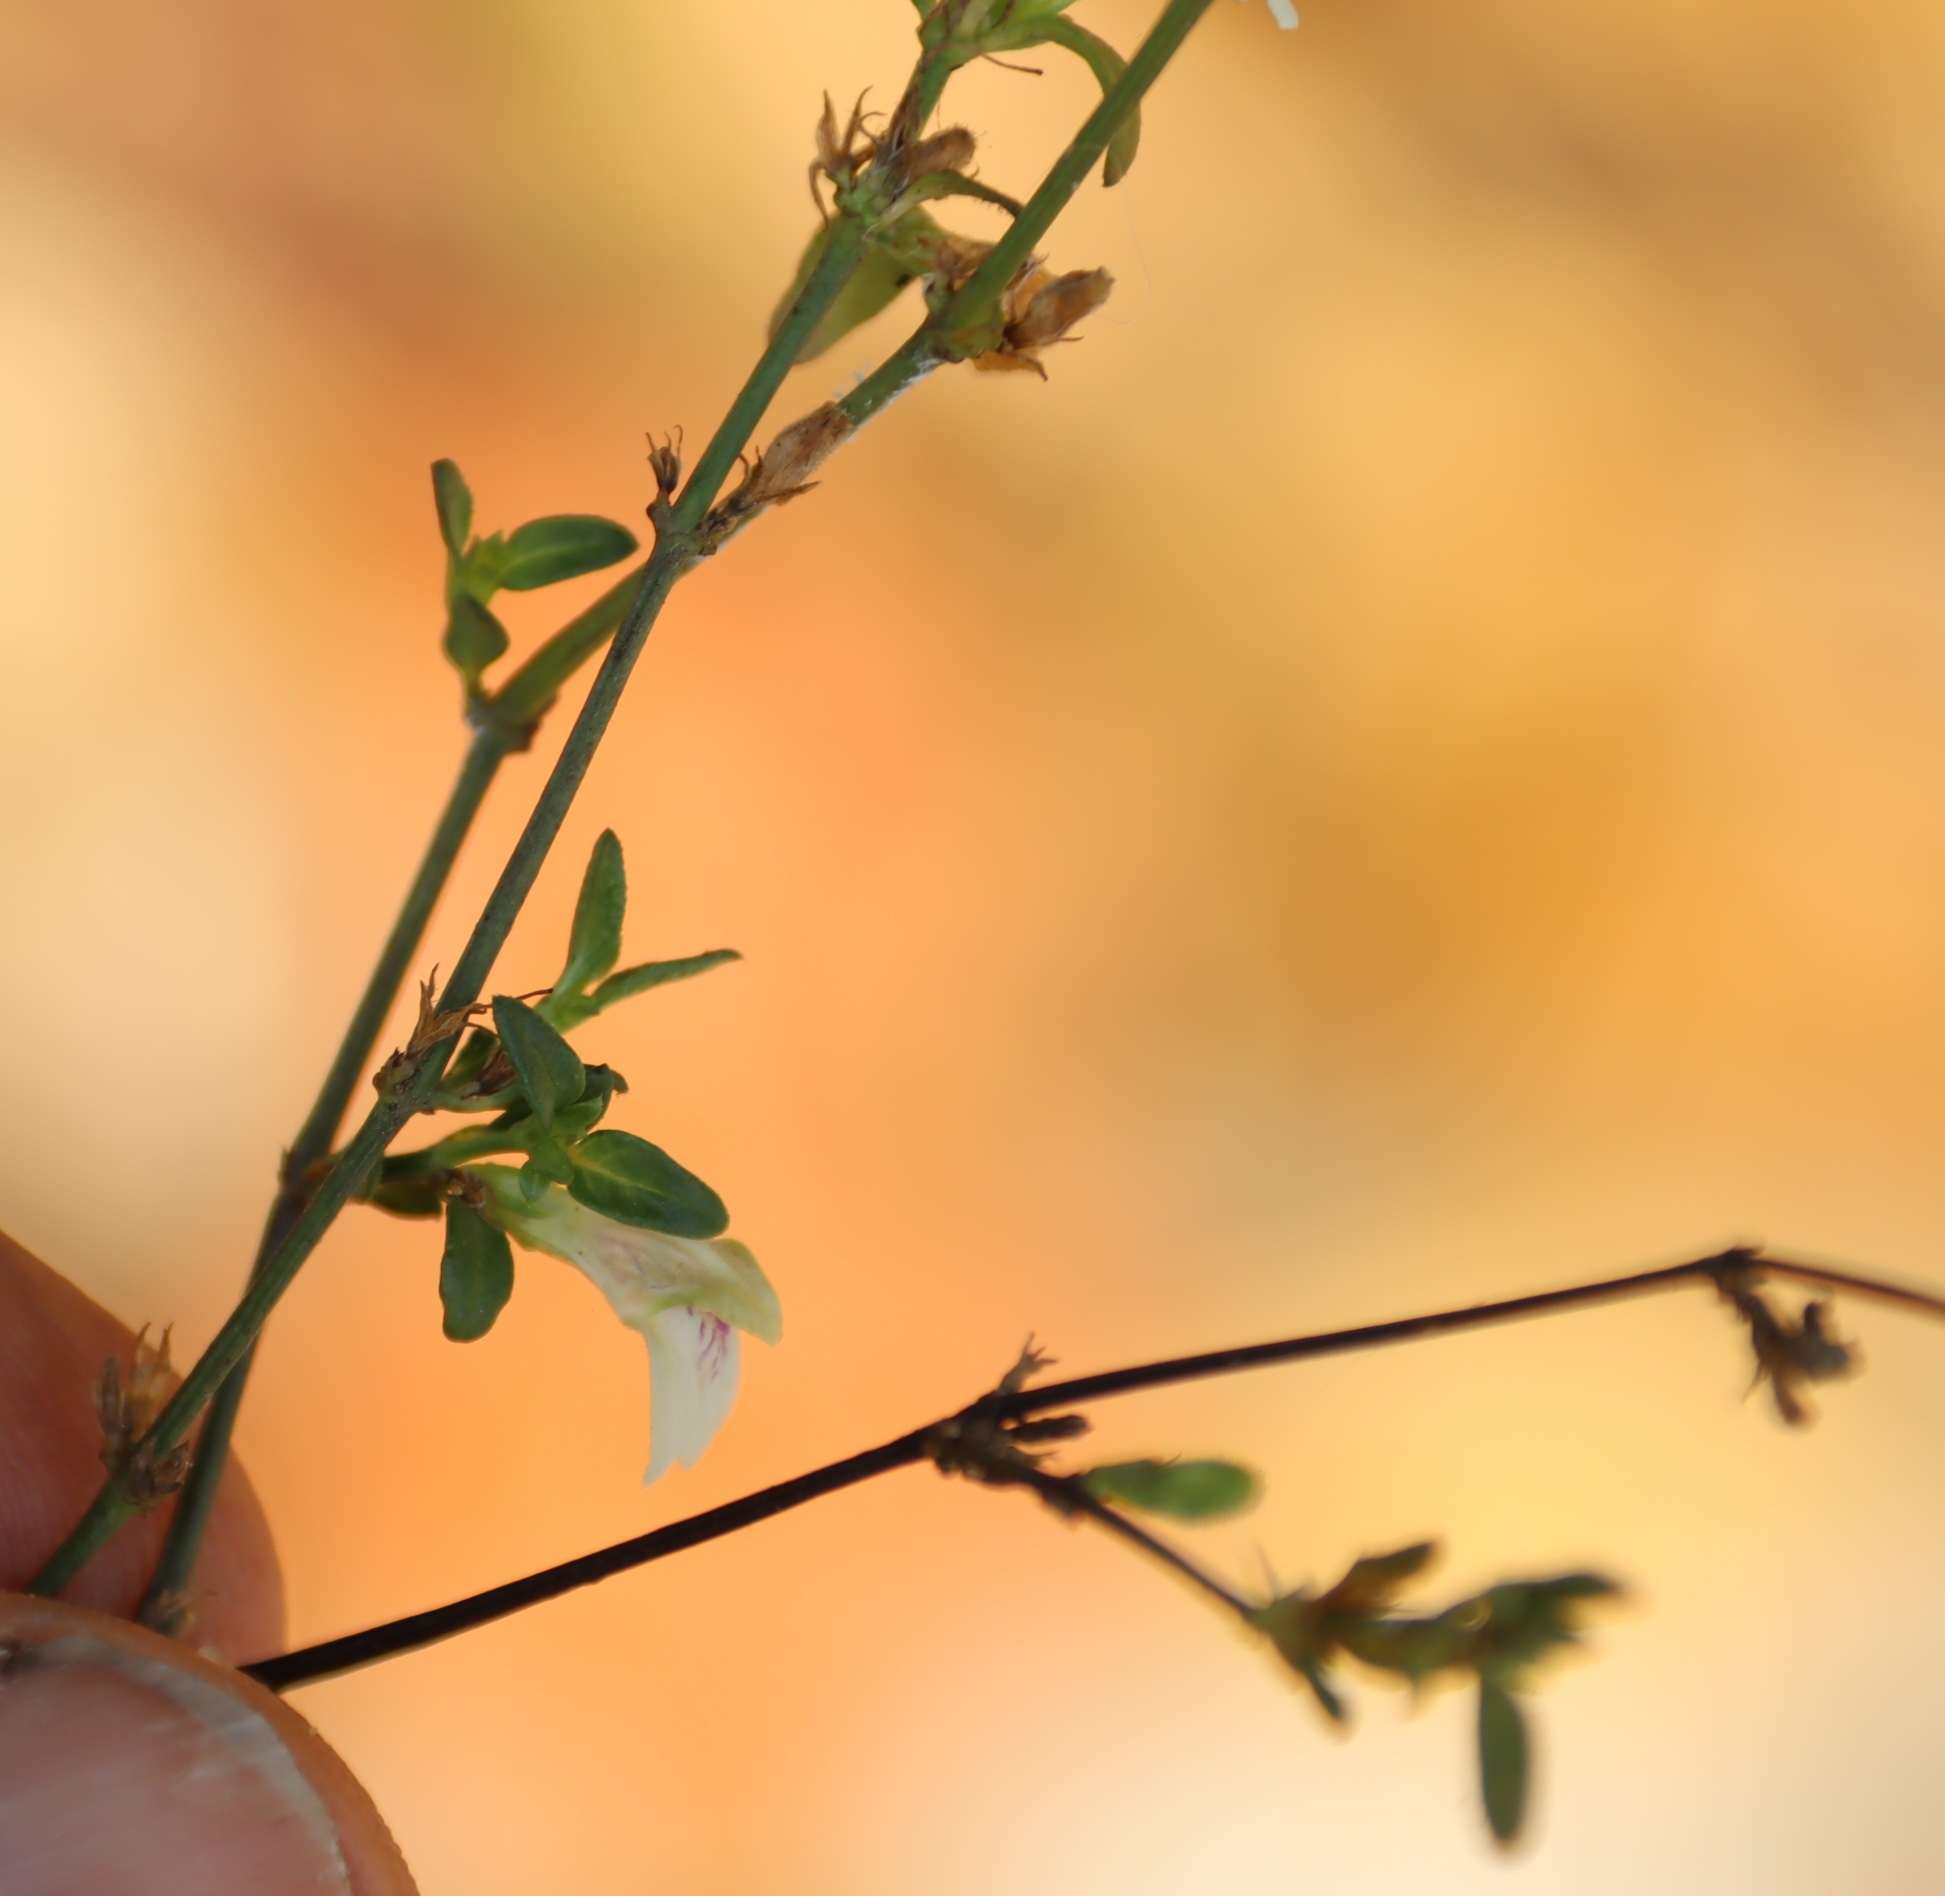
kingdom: Plantae
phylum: Tracheophyta
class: Magnoliopsida
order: Lamiales
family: Acanthaceae
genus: Justicia
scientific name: Justicia protracta
